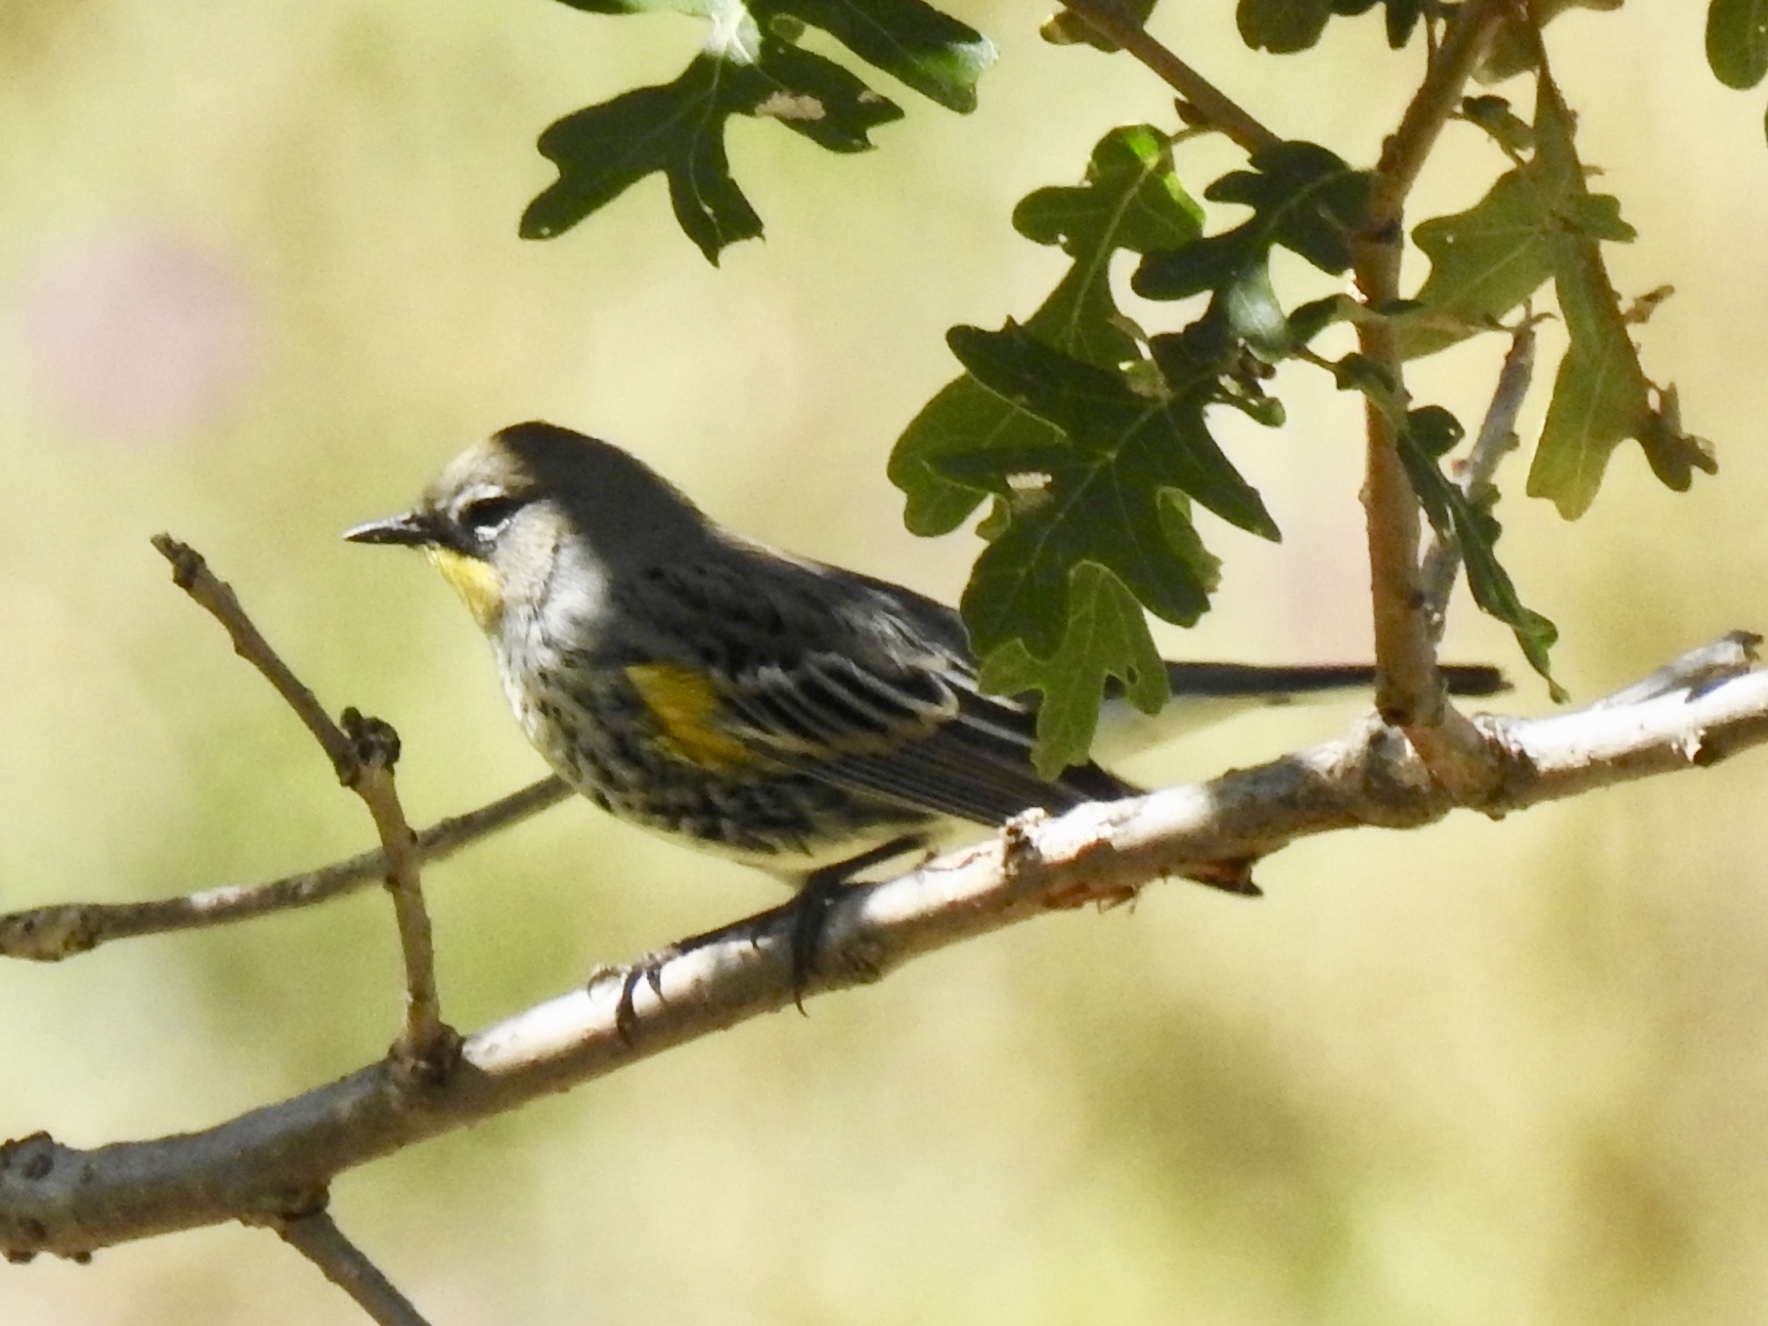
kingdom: Animalia
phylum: Chordata
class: Aves
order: Passeriformes
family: Parulidae
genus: Setophaga
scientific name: Setophaga auduboni
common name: Audubon's warbler
